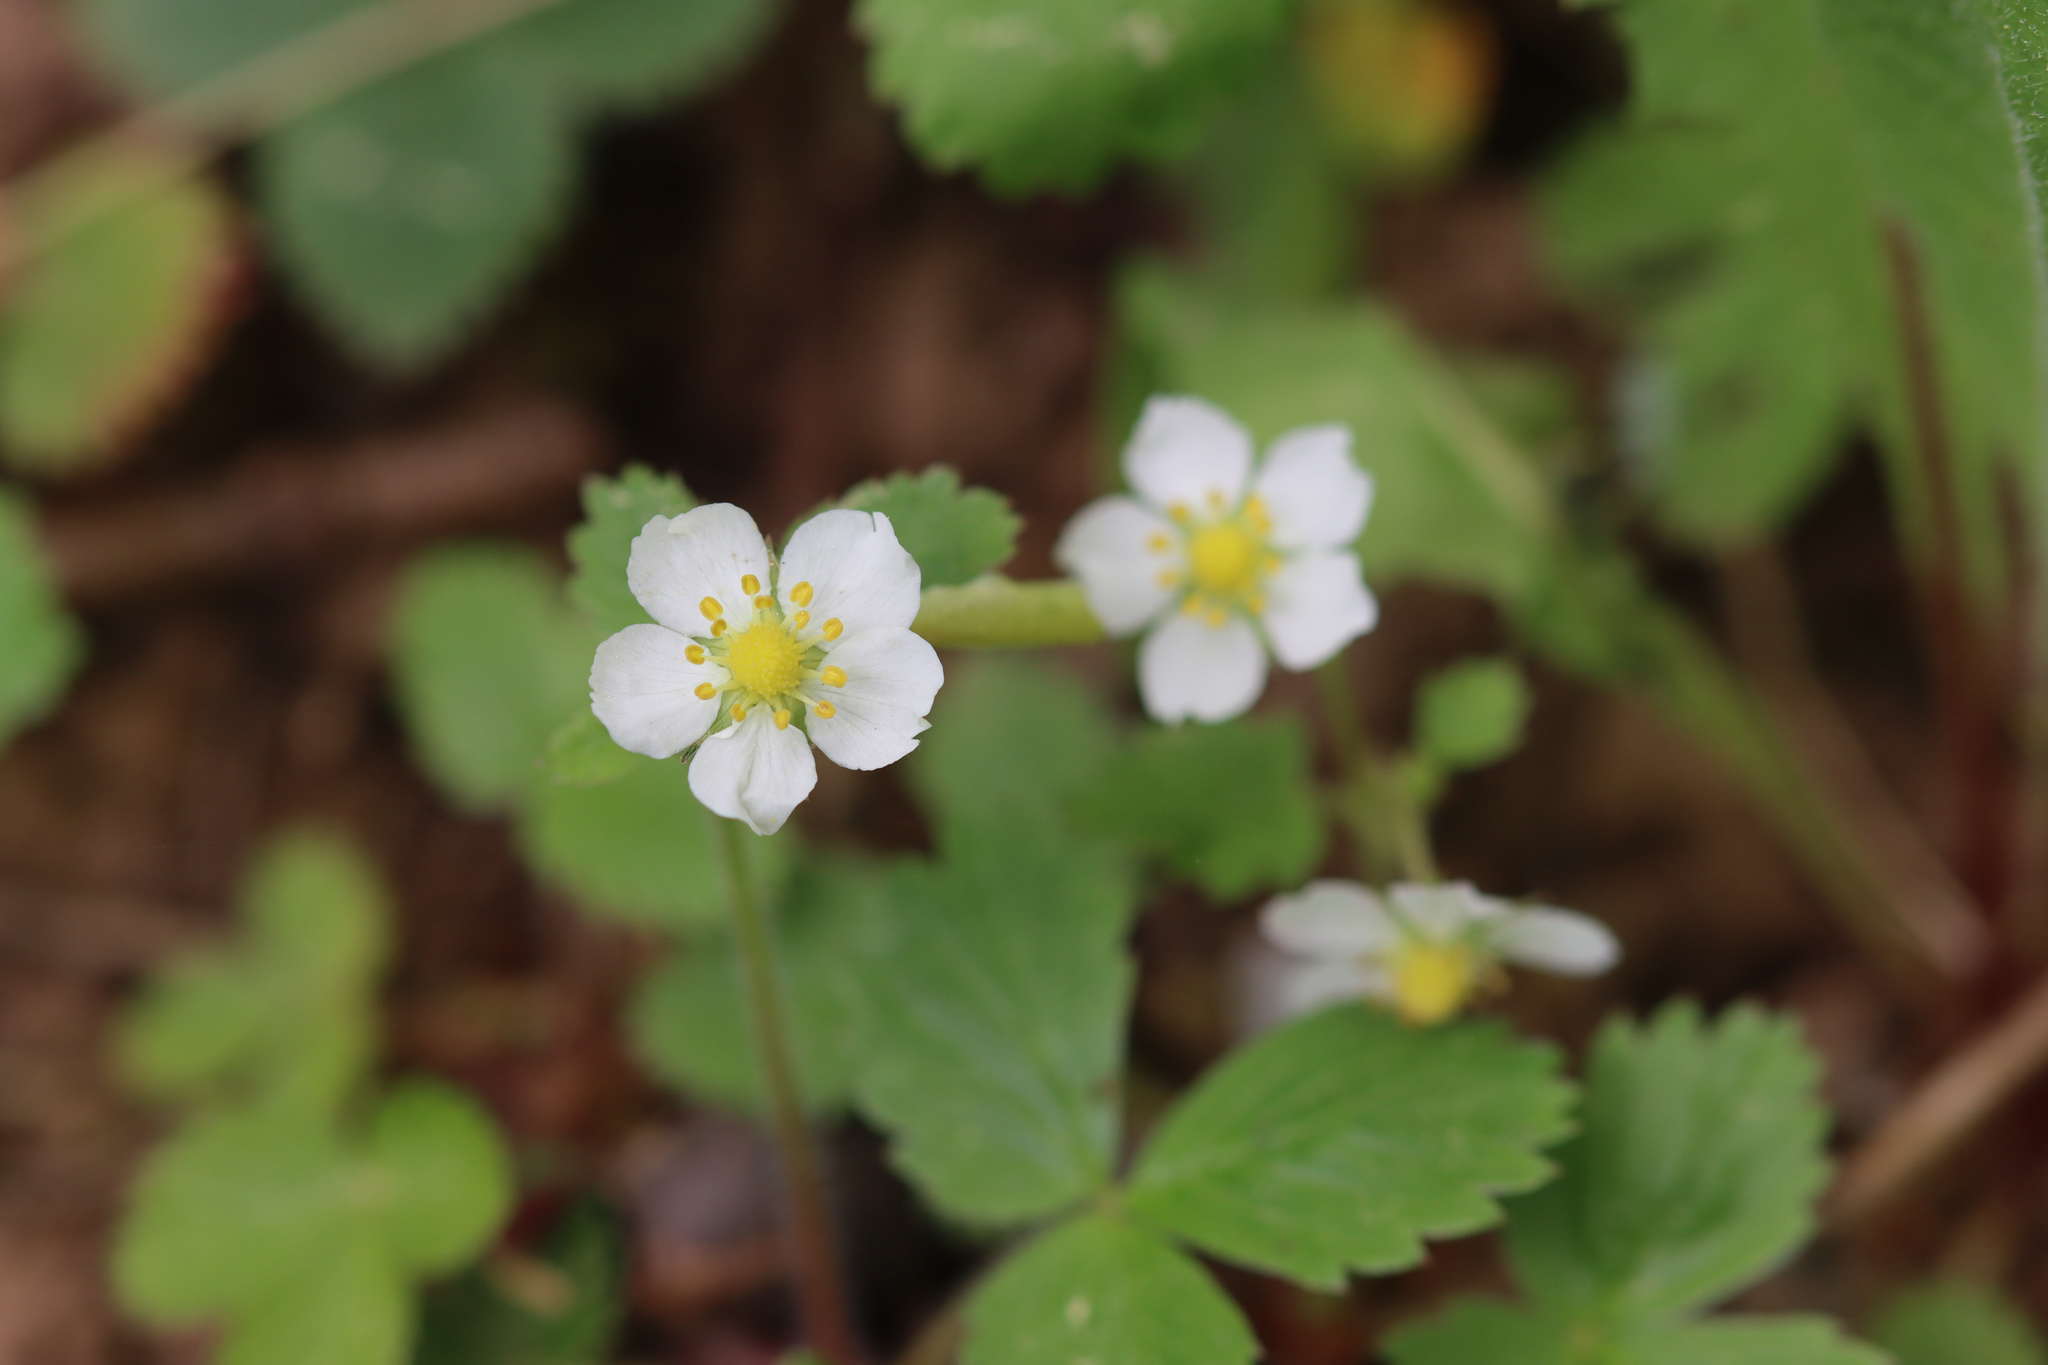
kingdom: Plantae
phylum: Tracheophyta
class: Magnoliopsida
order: Rosales
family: Rosaceae
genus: Fragaria
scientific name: Fragaria vesca
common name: Wild strawberry
